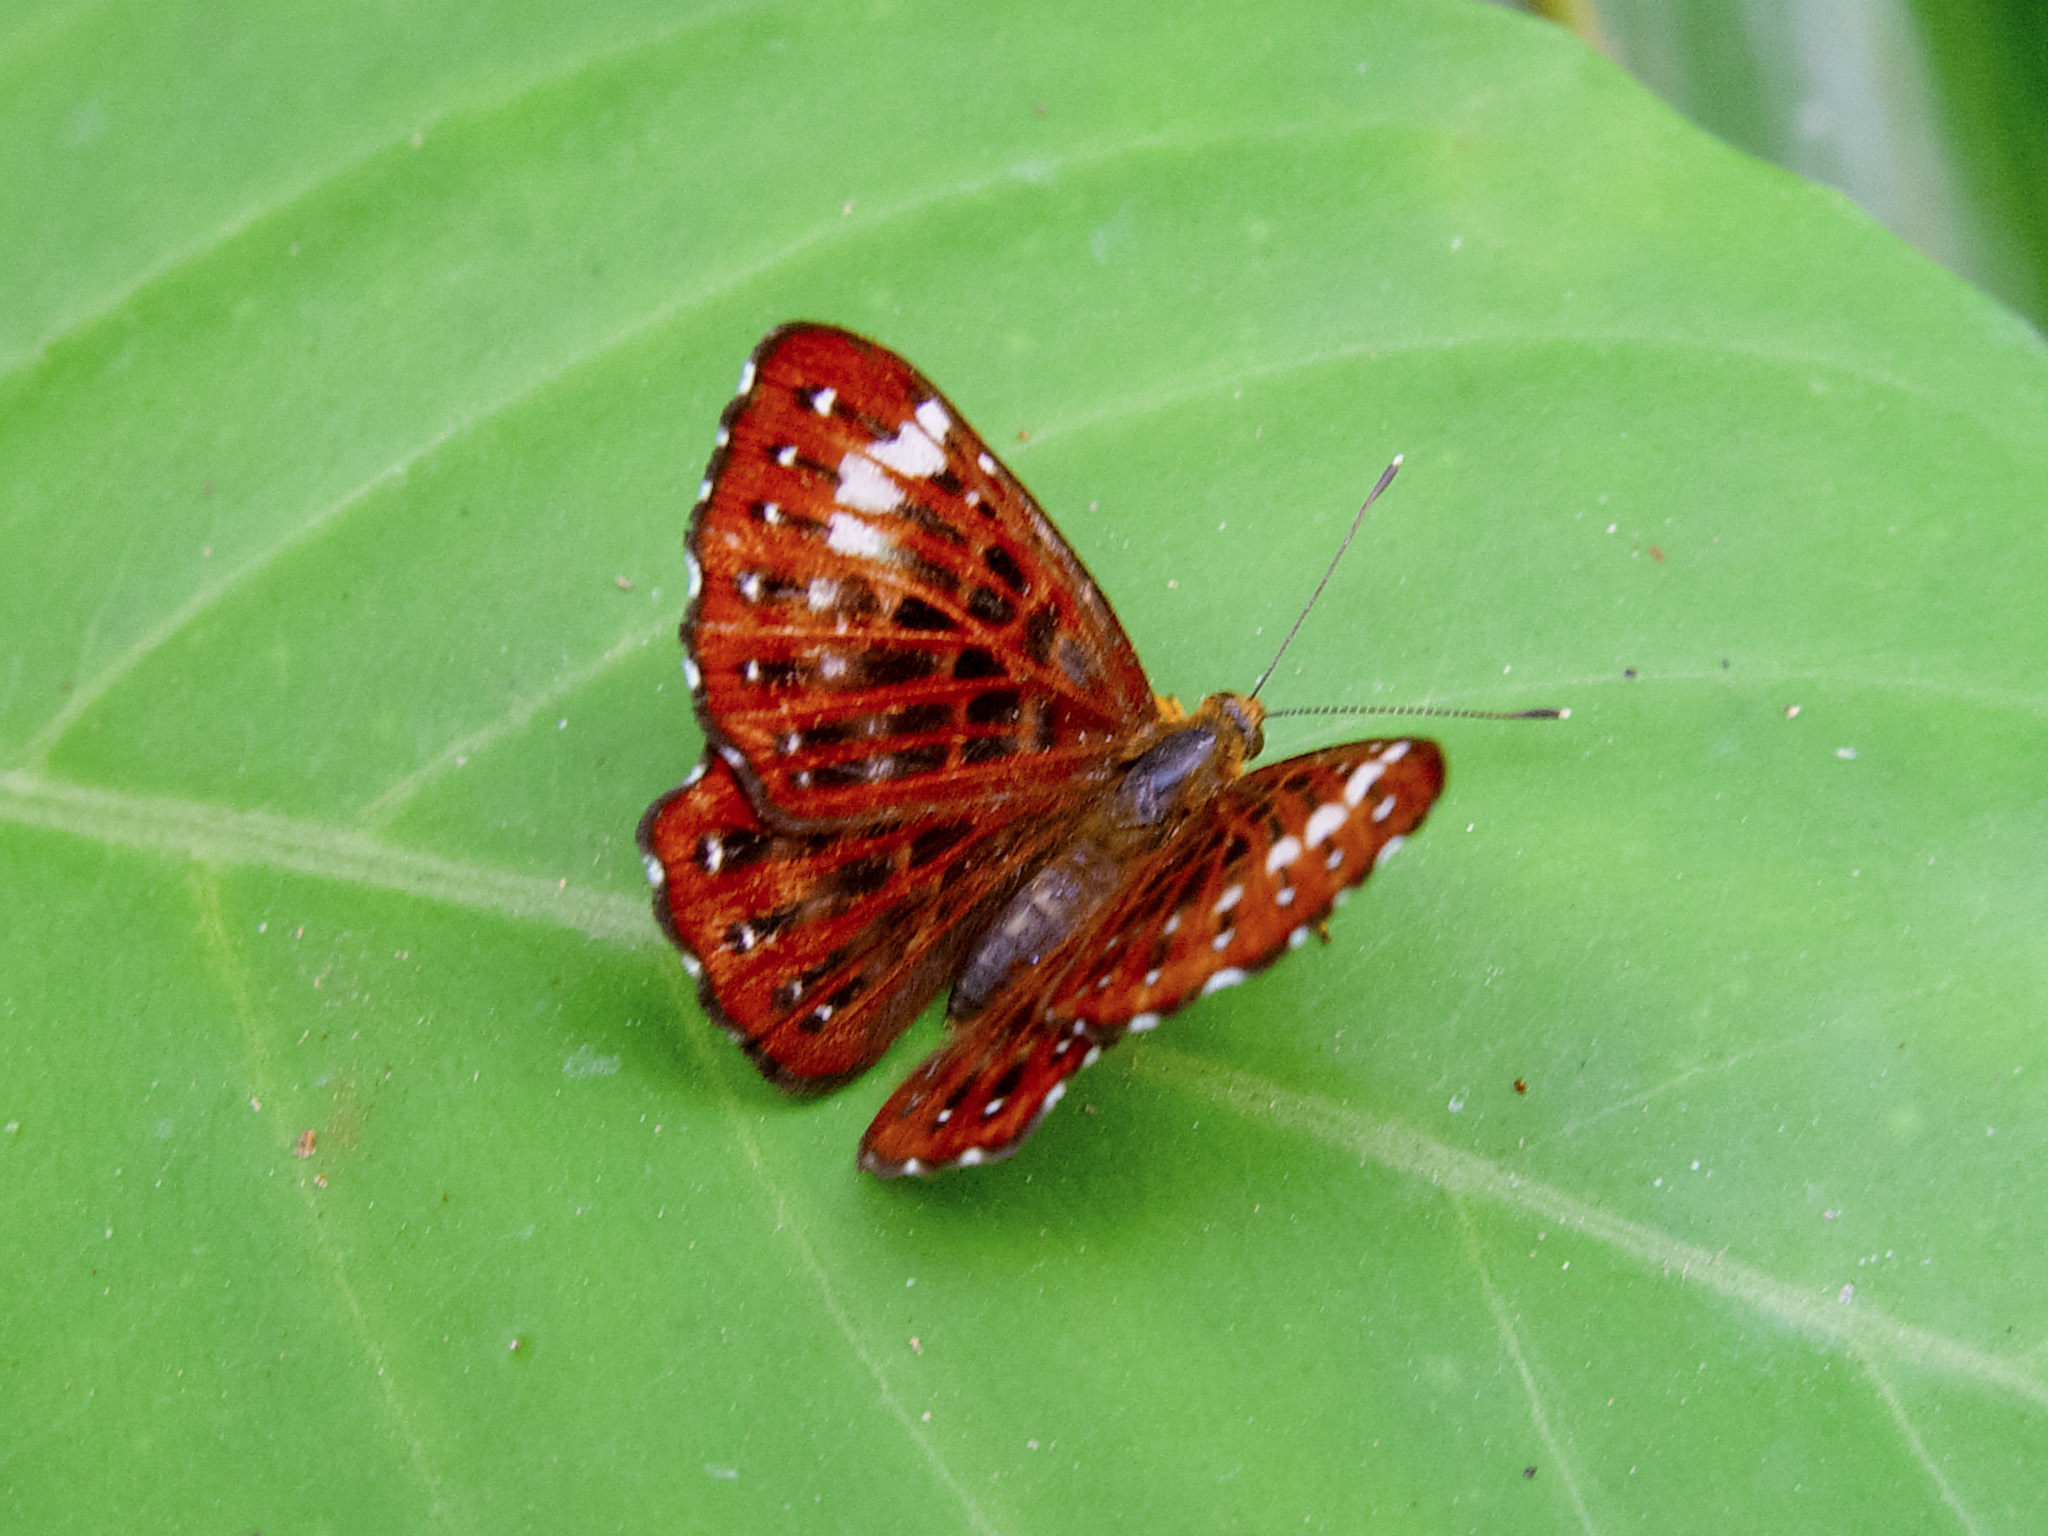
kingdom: Animalia
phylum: Arthropoda
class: Insecta
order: Lepidoptera
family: Riodinidae
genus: Zemeros
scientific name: Zemeros flegyas
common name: Punchinello
